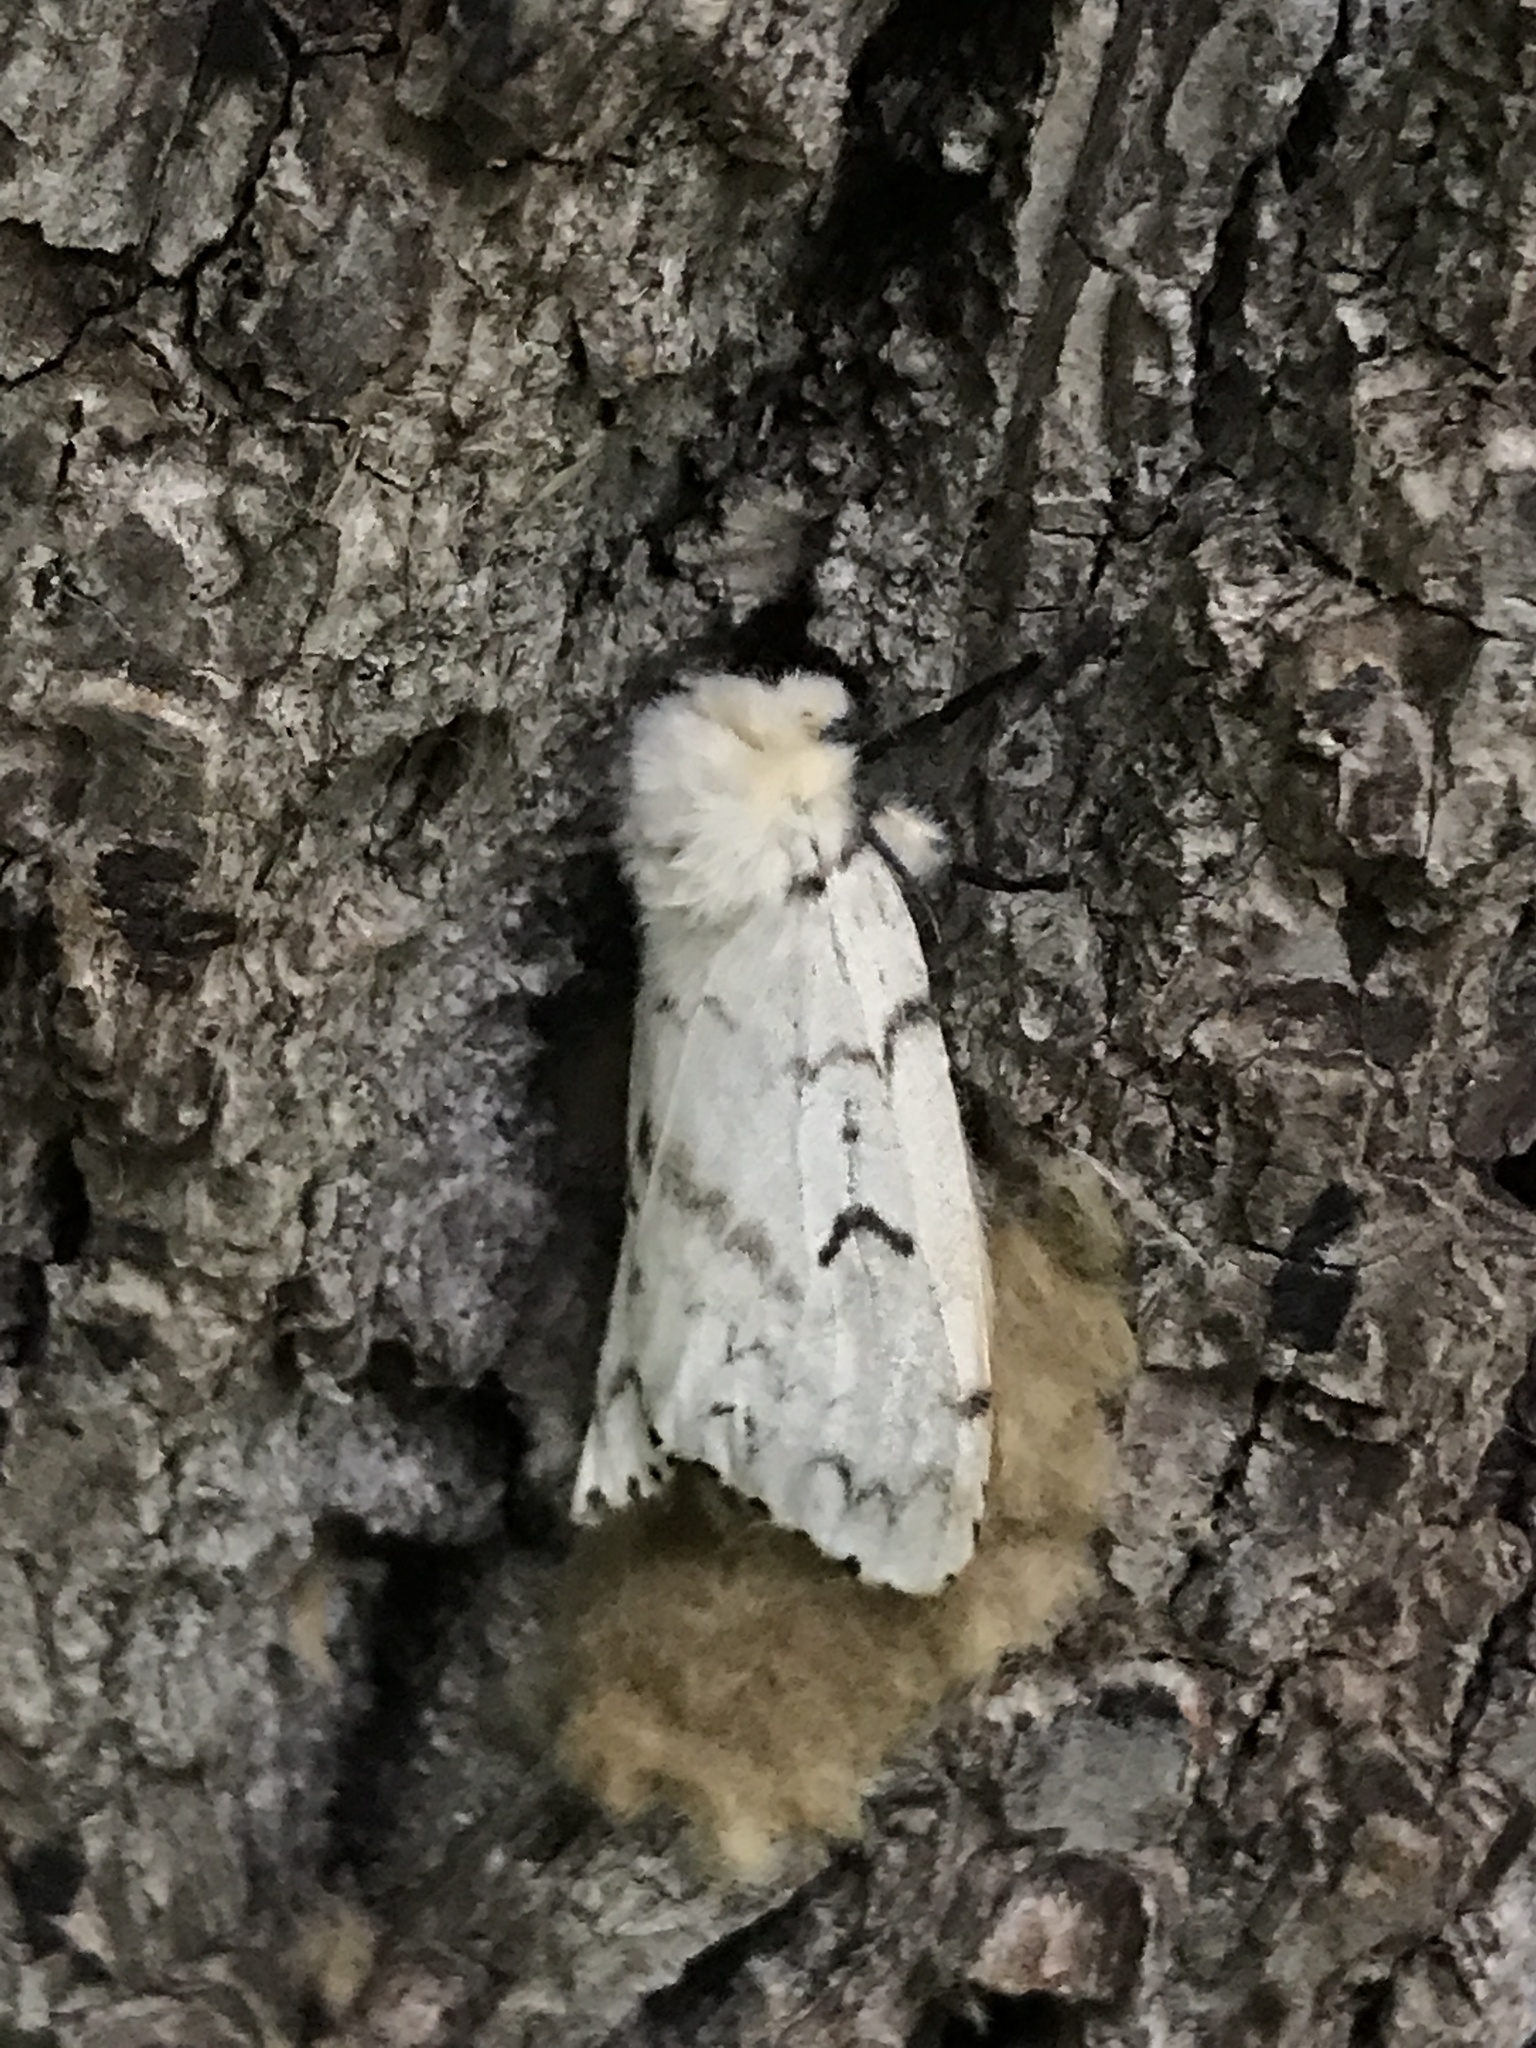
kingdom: Animalia
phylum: Arthropoda
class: Insecta
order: Lepidoptera
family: Erebidae
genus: Lymantria
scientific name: Lymantria dispar
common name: Gypsy moth
